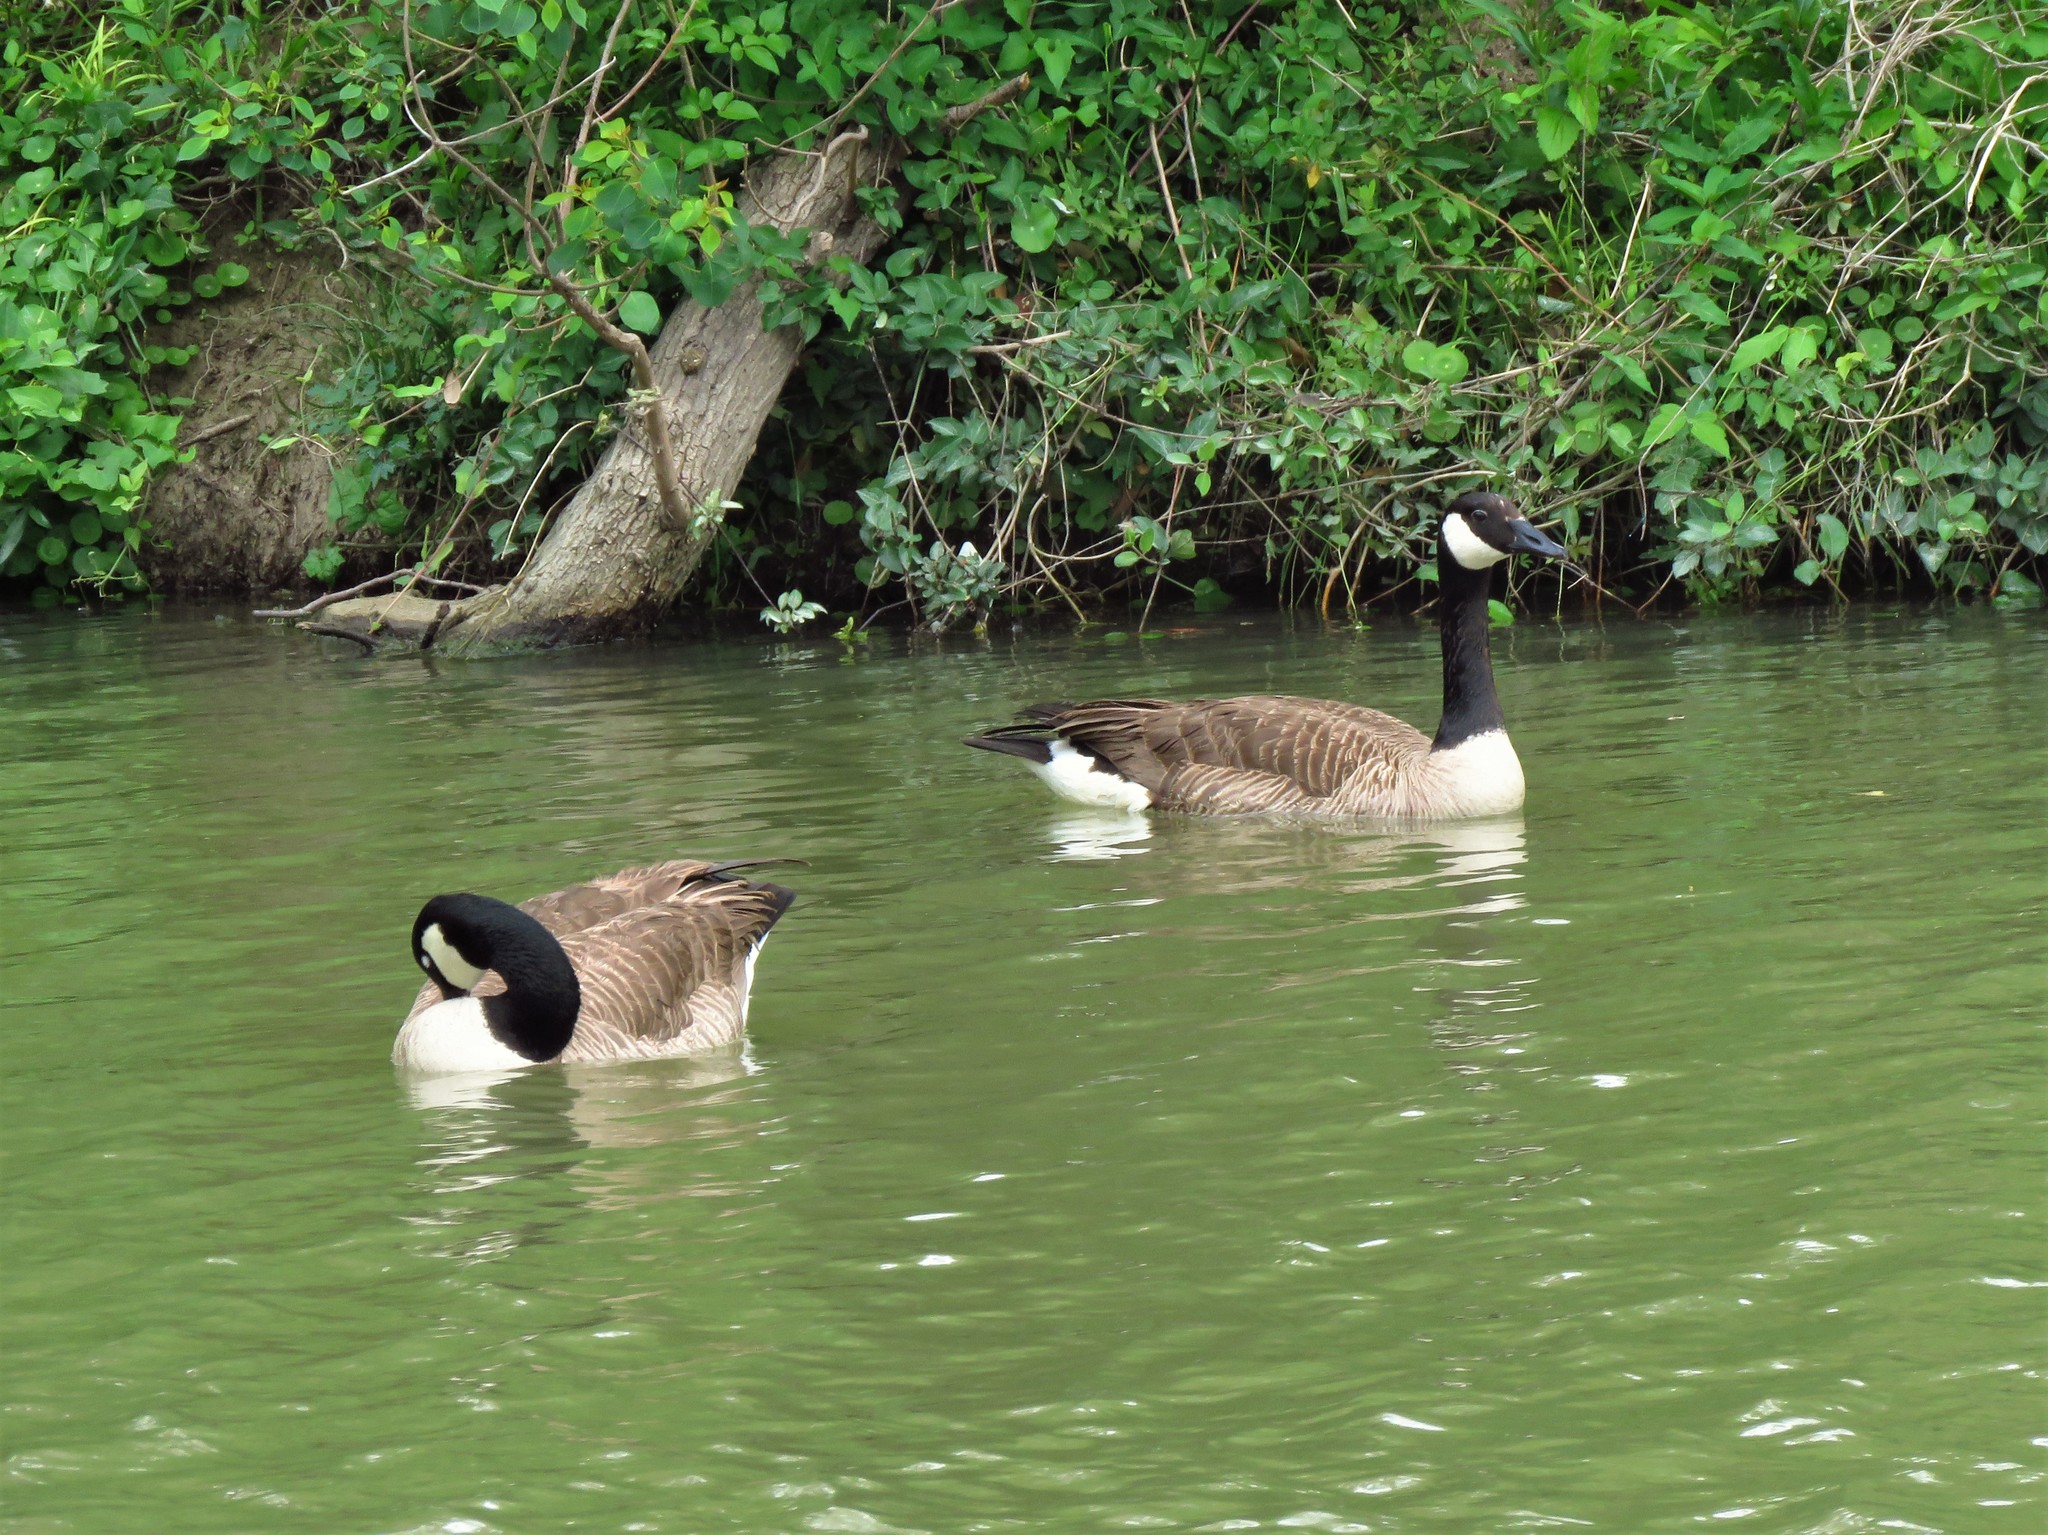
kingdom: Animalia
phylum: Chordata
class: Aves
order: Anseriformes
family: Anatidae
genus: Branta
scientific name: Branta canadensis
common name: Canada goose
